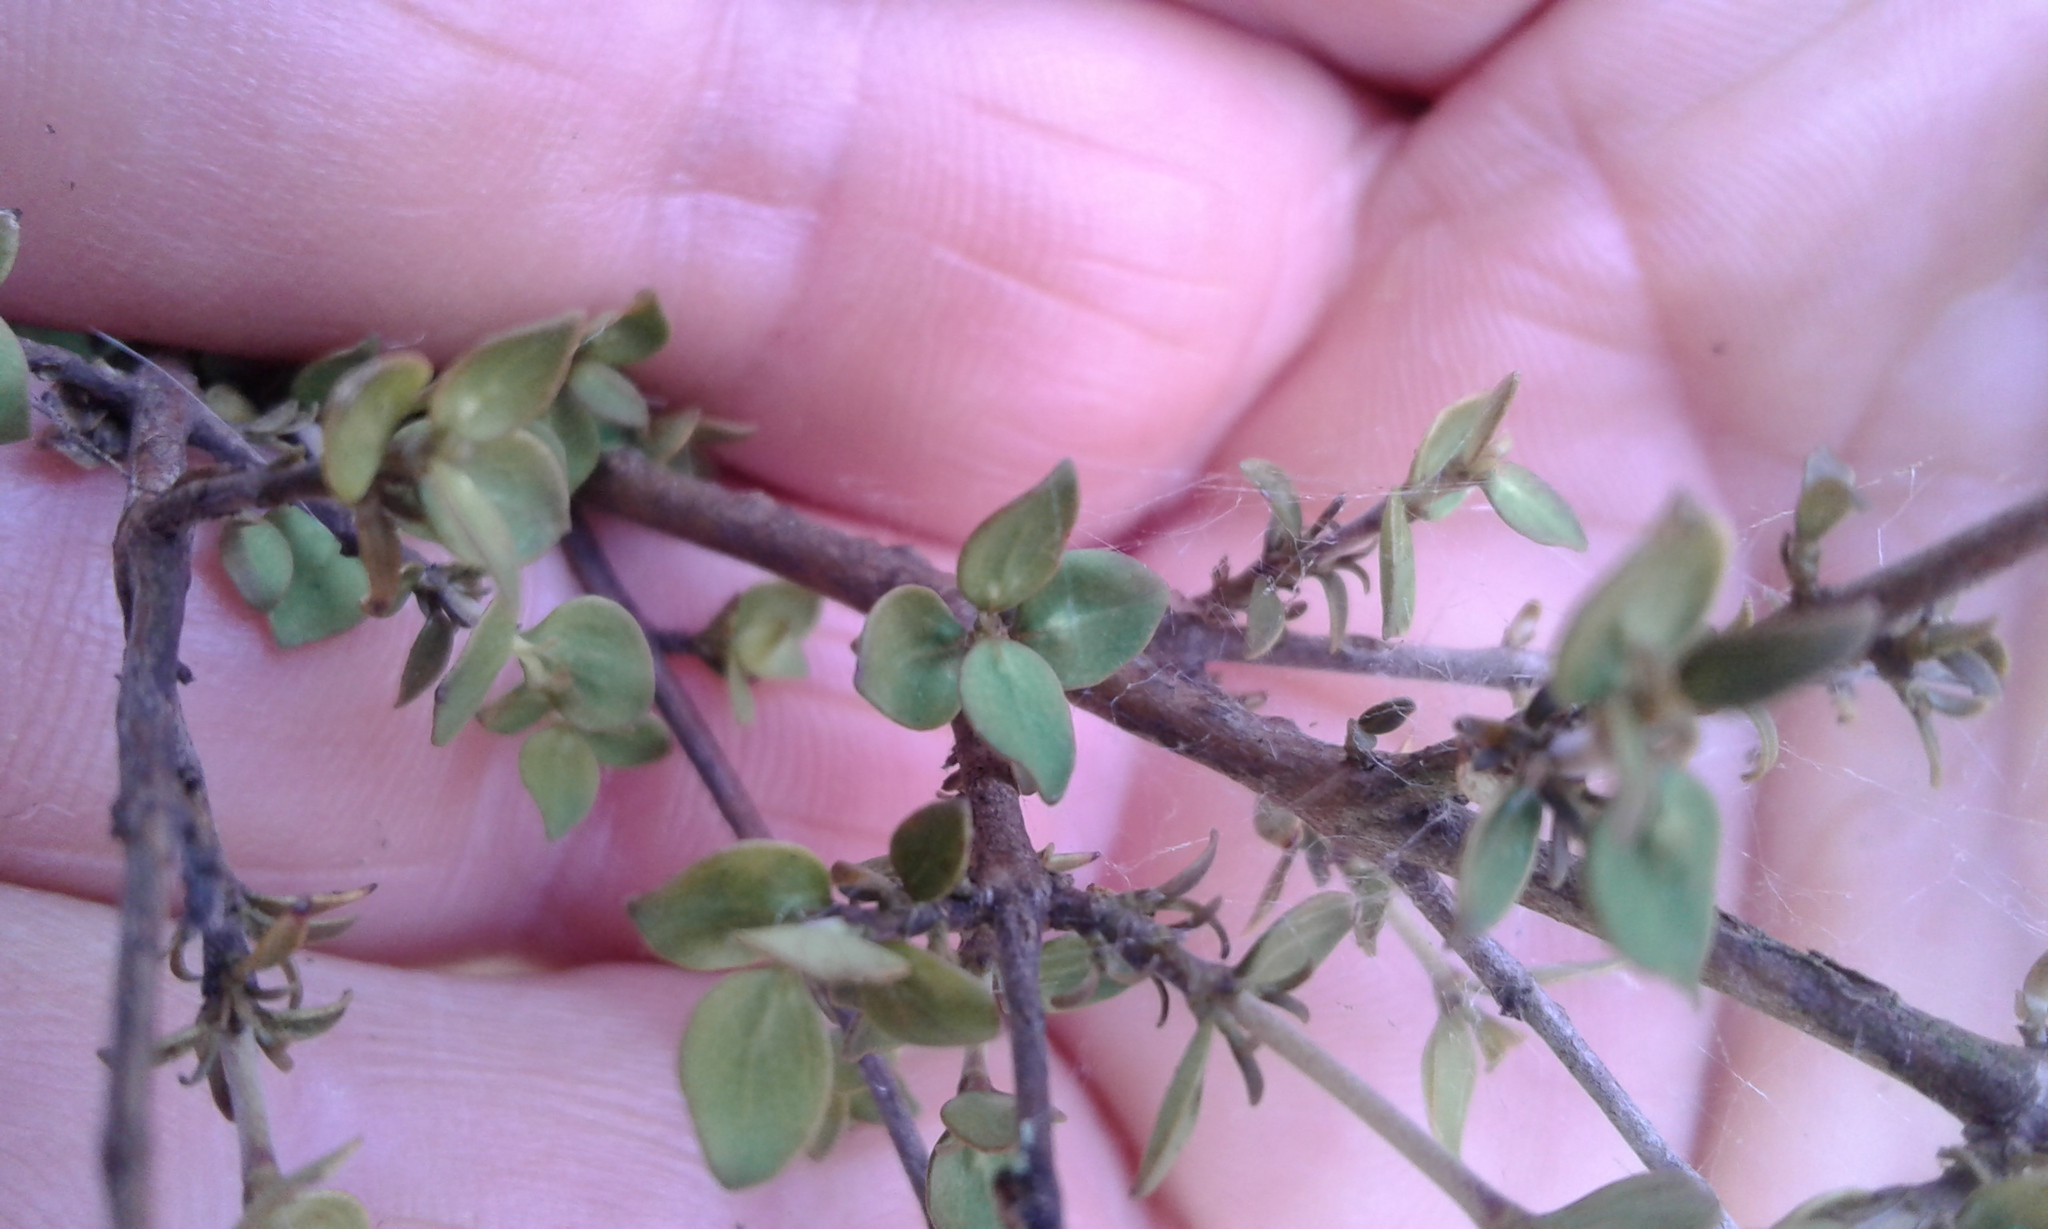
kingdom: Plantae
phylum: Tracheophyta
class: Magnoliopsida
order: Gentianales
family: Rubiaceae
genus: Coprosma
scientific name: Coprosma rhamnoides
